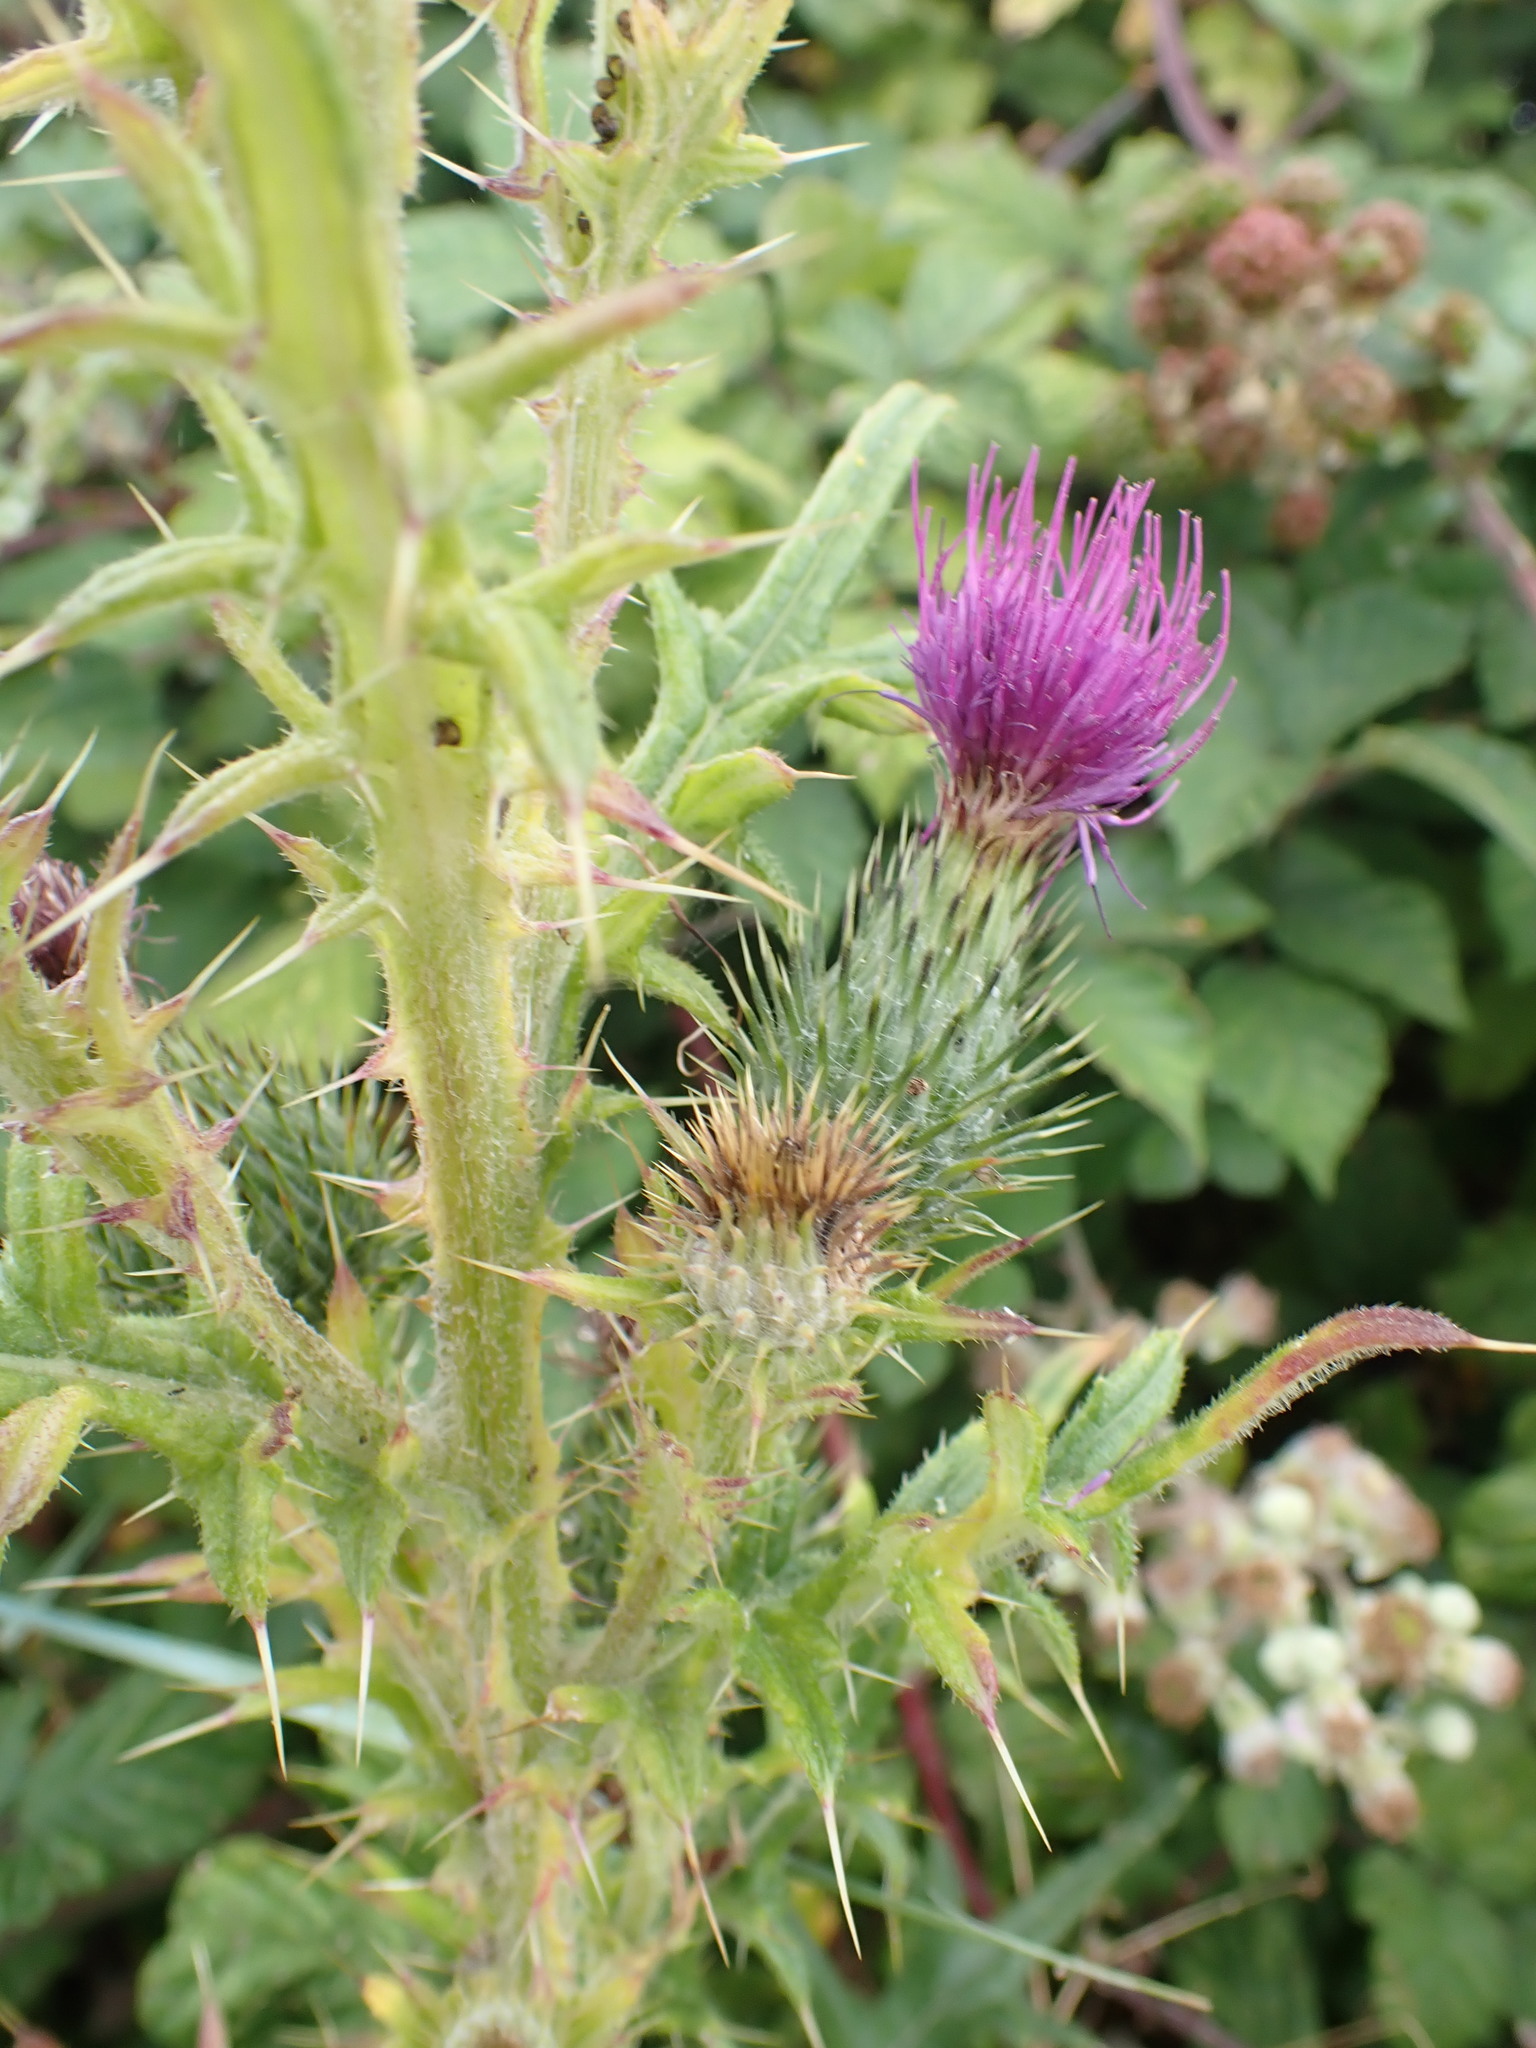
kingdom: Plantae
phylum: Tracheophyta
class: Magnoliopsida
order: Asterales
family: Asteraceae
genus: Cirsium
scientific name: Cirsium vulgare
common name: Bull thistle
